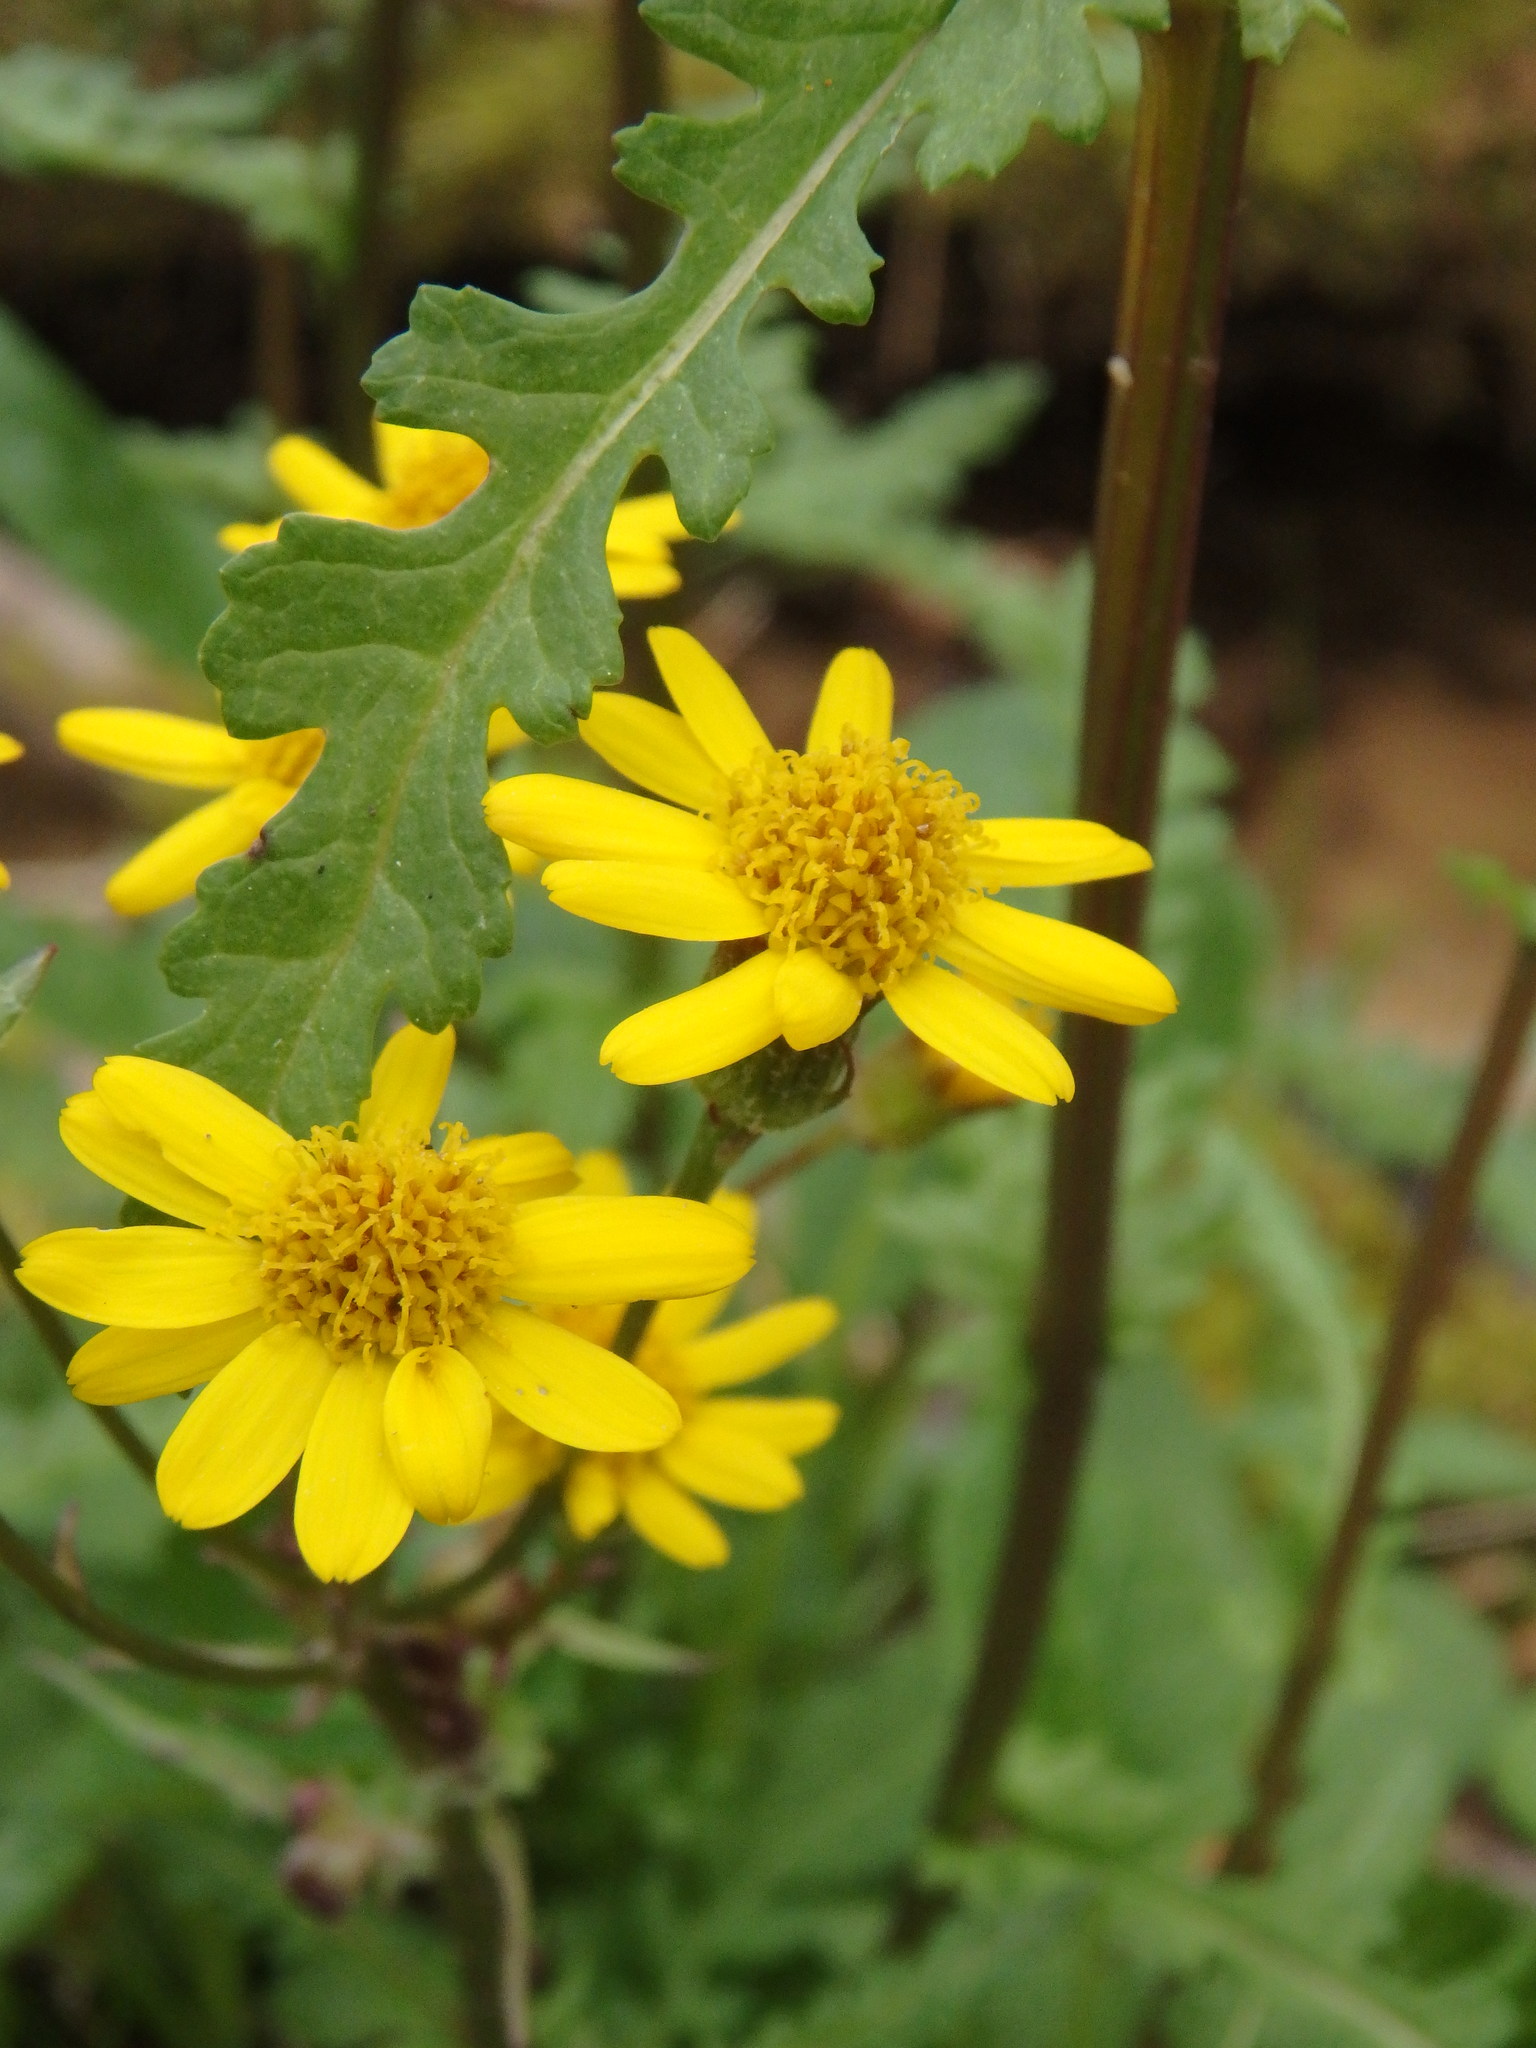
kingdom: Plantae
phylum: Tracheophyta
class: Magnoliopsida
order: Asterales
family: Asteraceae
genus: Packera
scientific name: Packera aurea
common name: Golden groundsel
